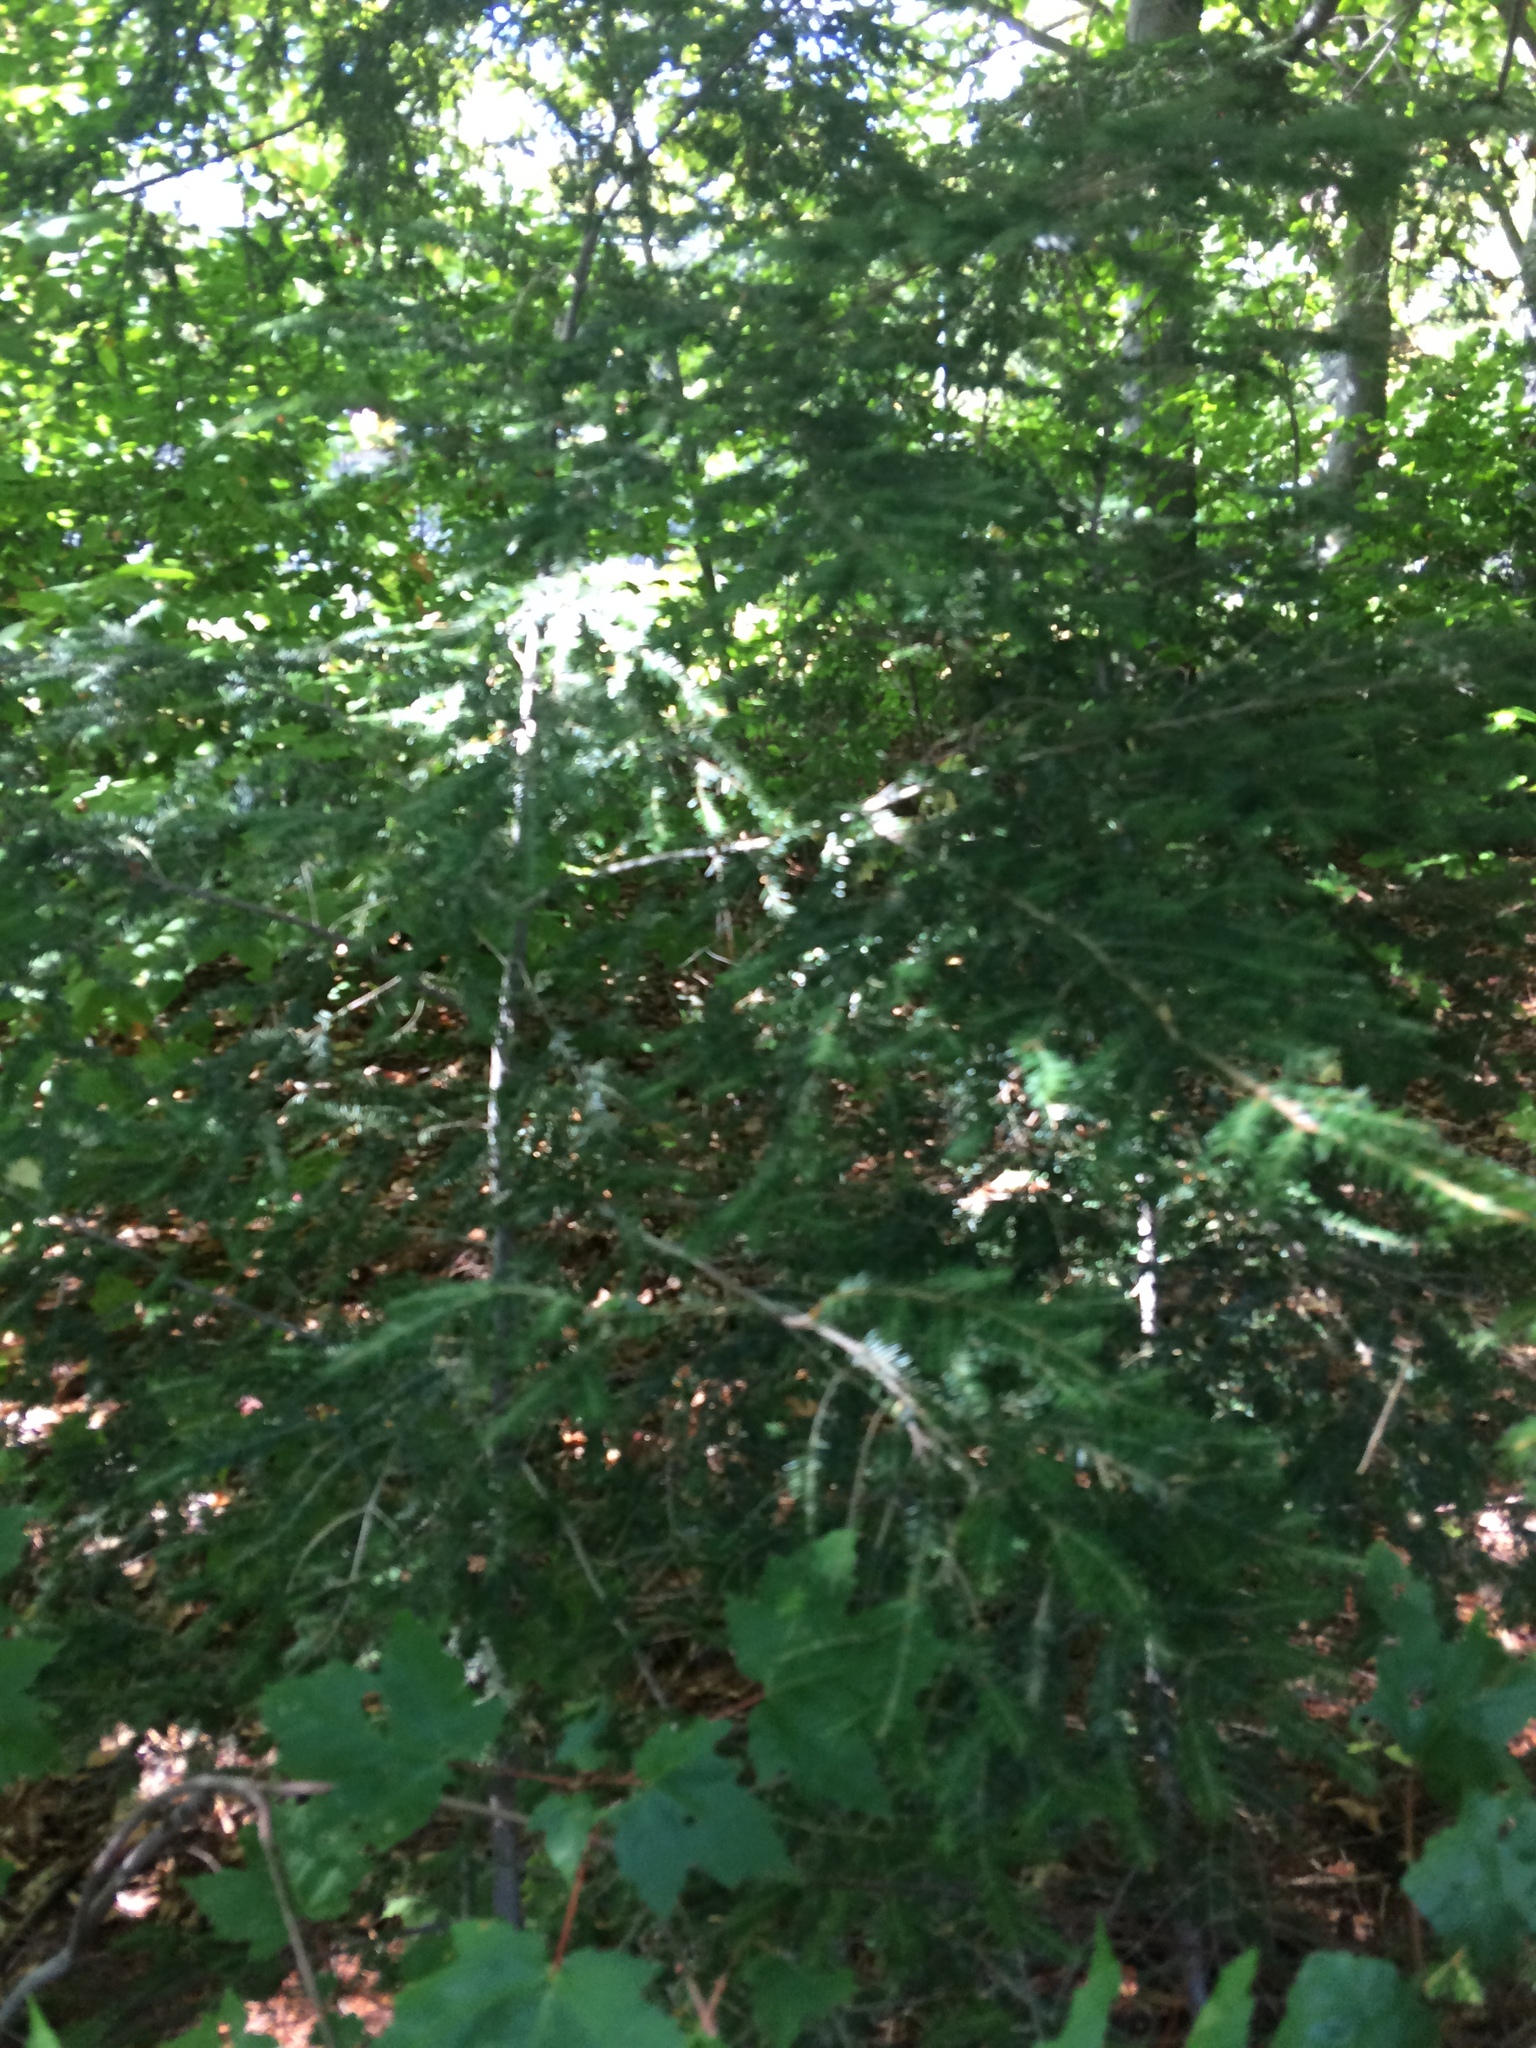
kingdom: Plantae
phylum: Tracheophyta
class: Pinopsida
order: Pinales
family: Pinaceae
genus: Tsuga
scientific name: Tsuga canadensis
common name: Eastern hemlock
